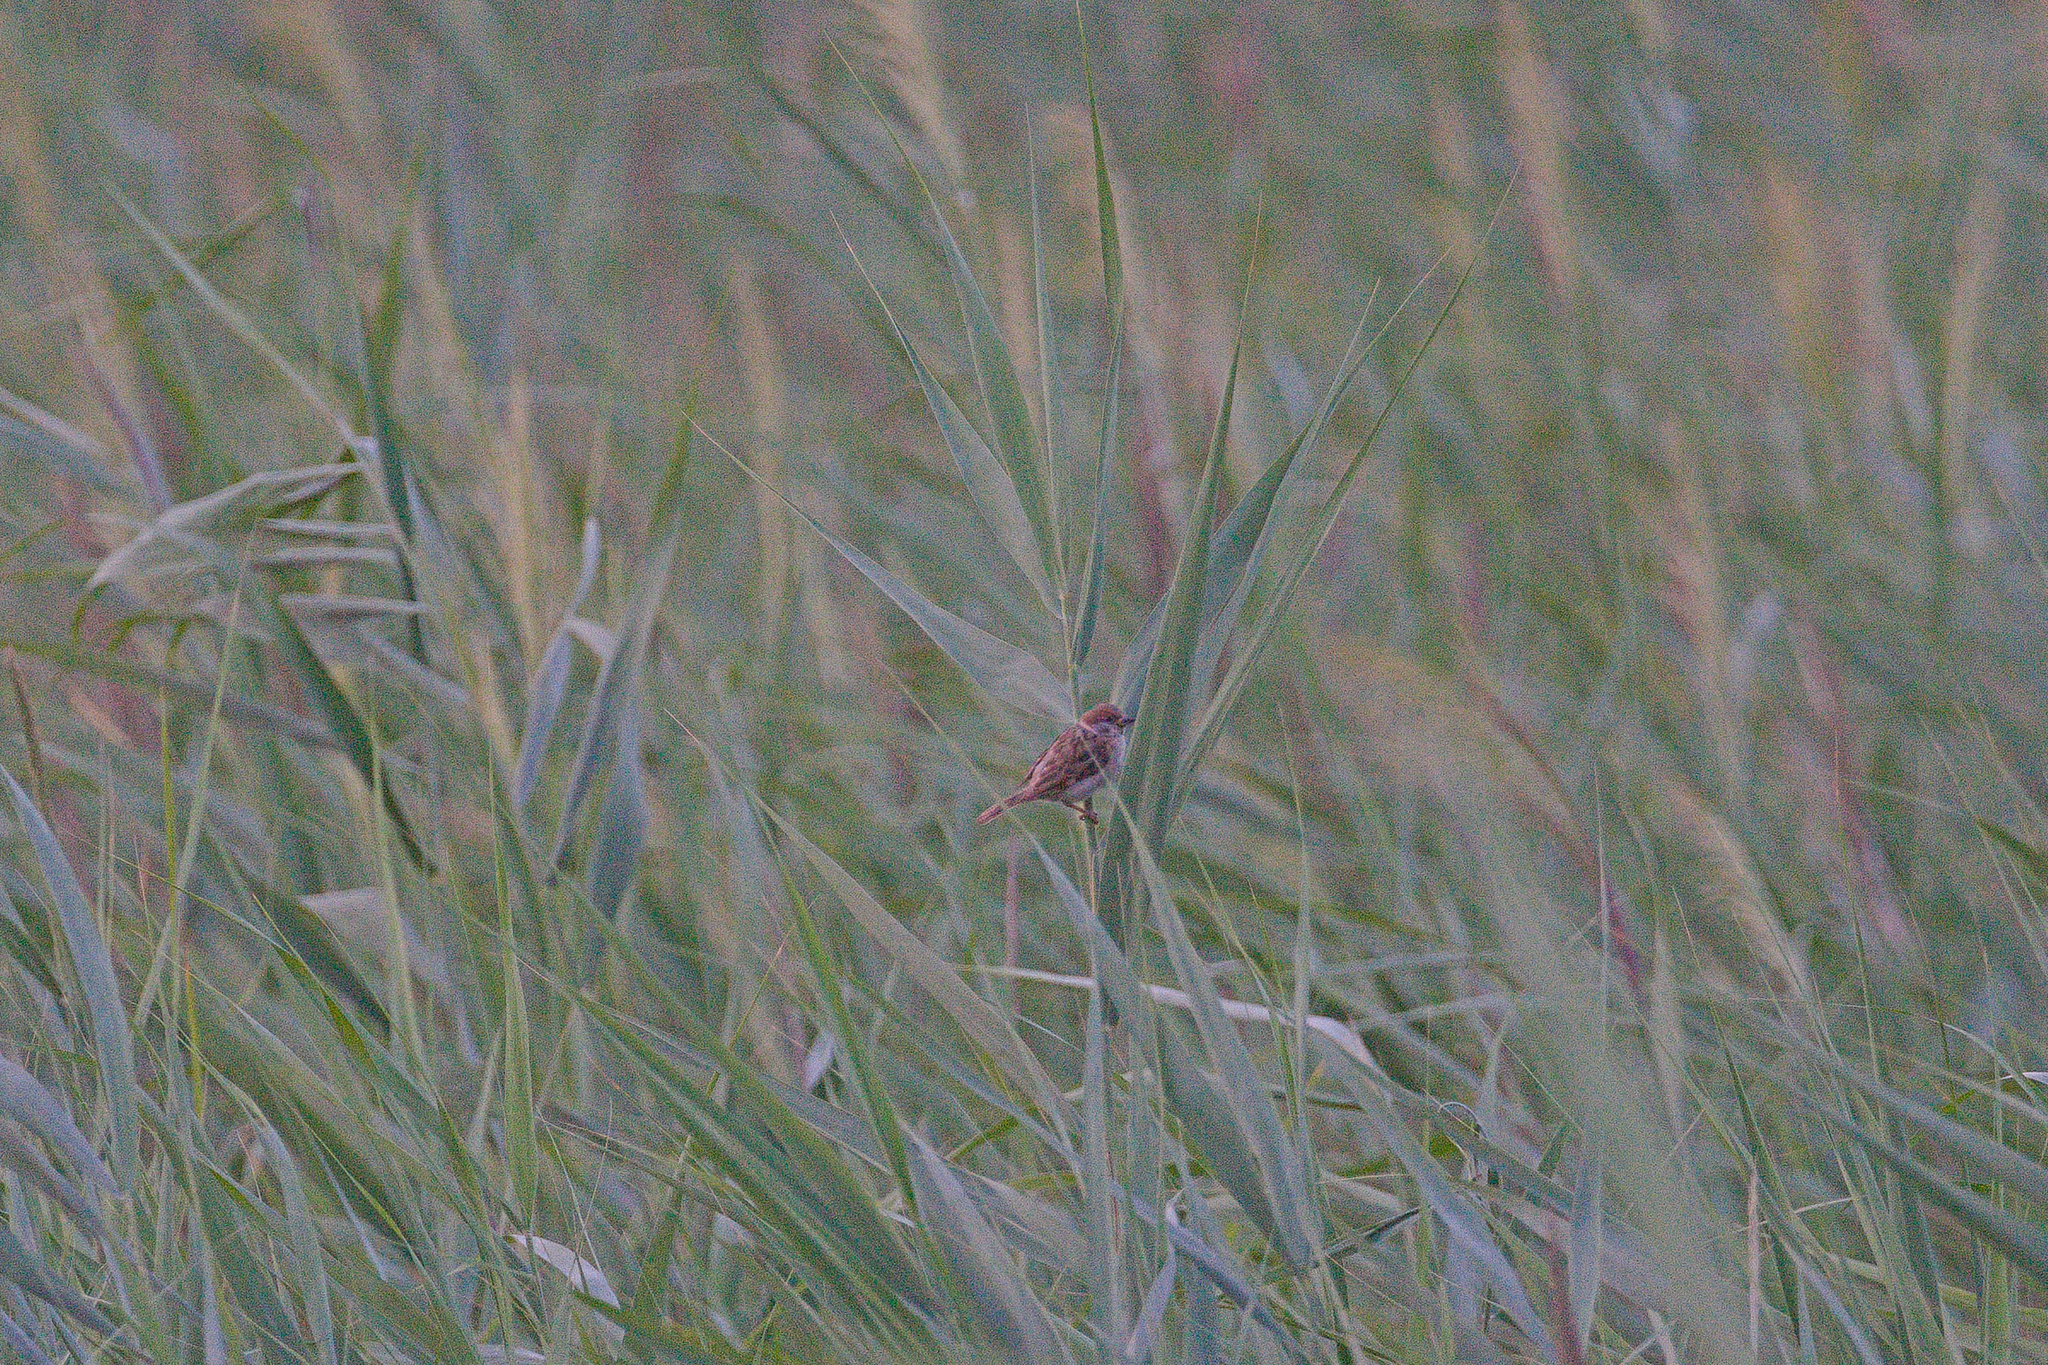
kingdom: Animalia
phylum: Chordata
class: Aves
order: Passeriformes
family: Passeridae
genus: Passer
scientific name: Passer montanus
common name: Eurasian tree sparrow
